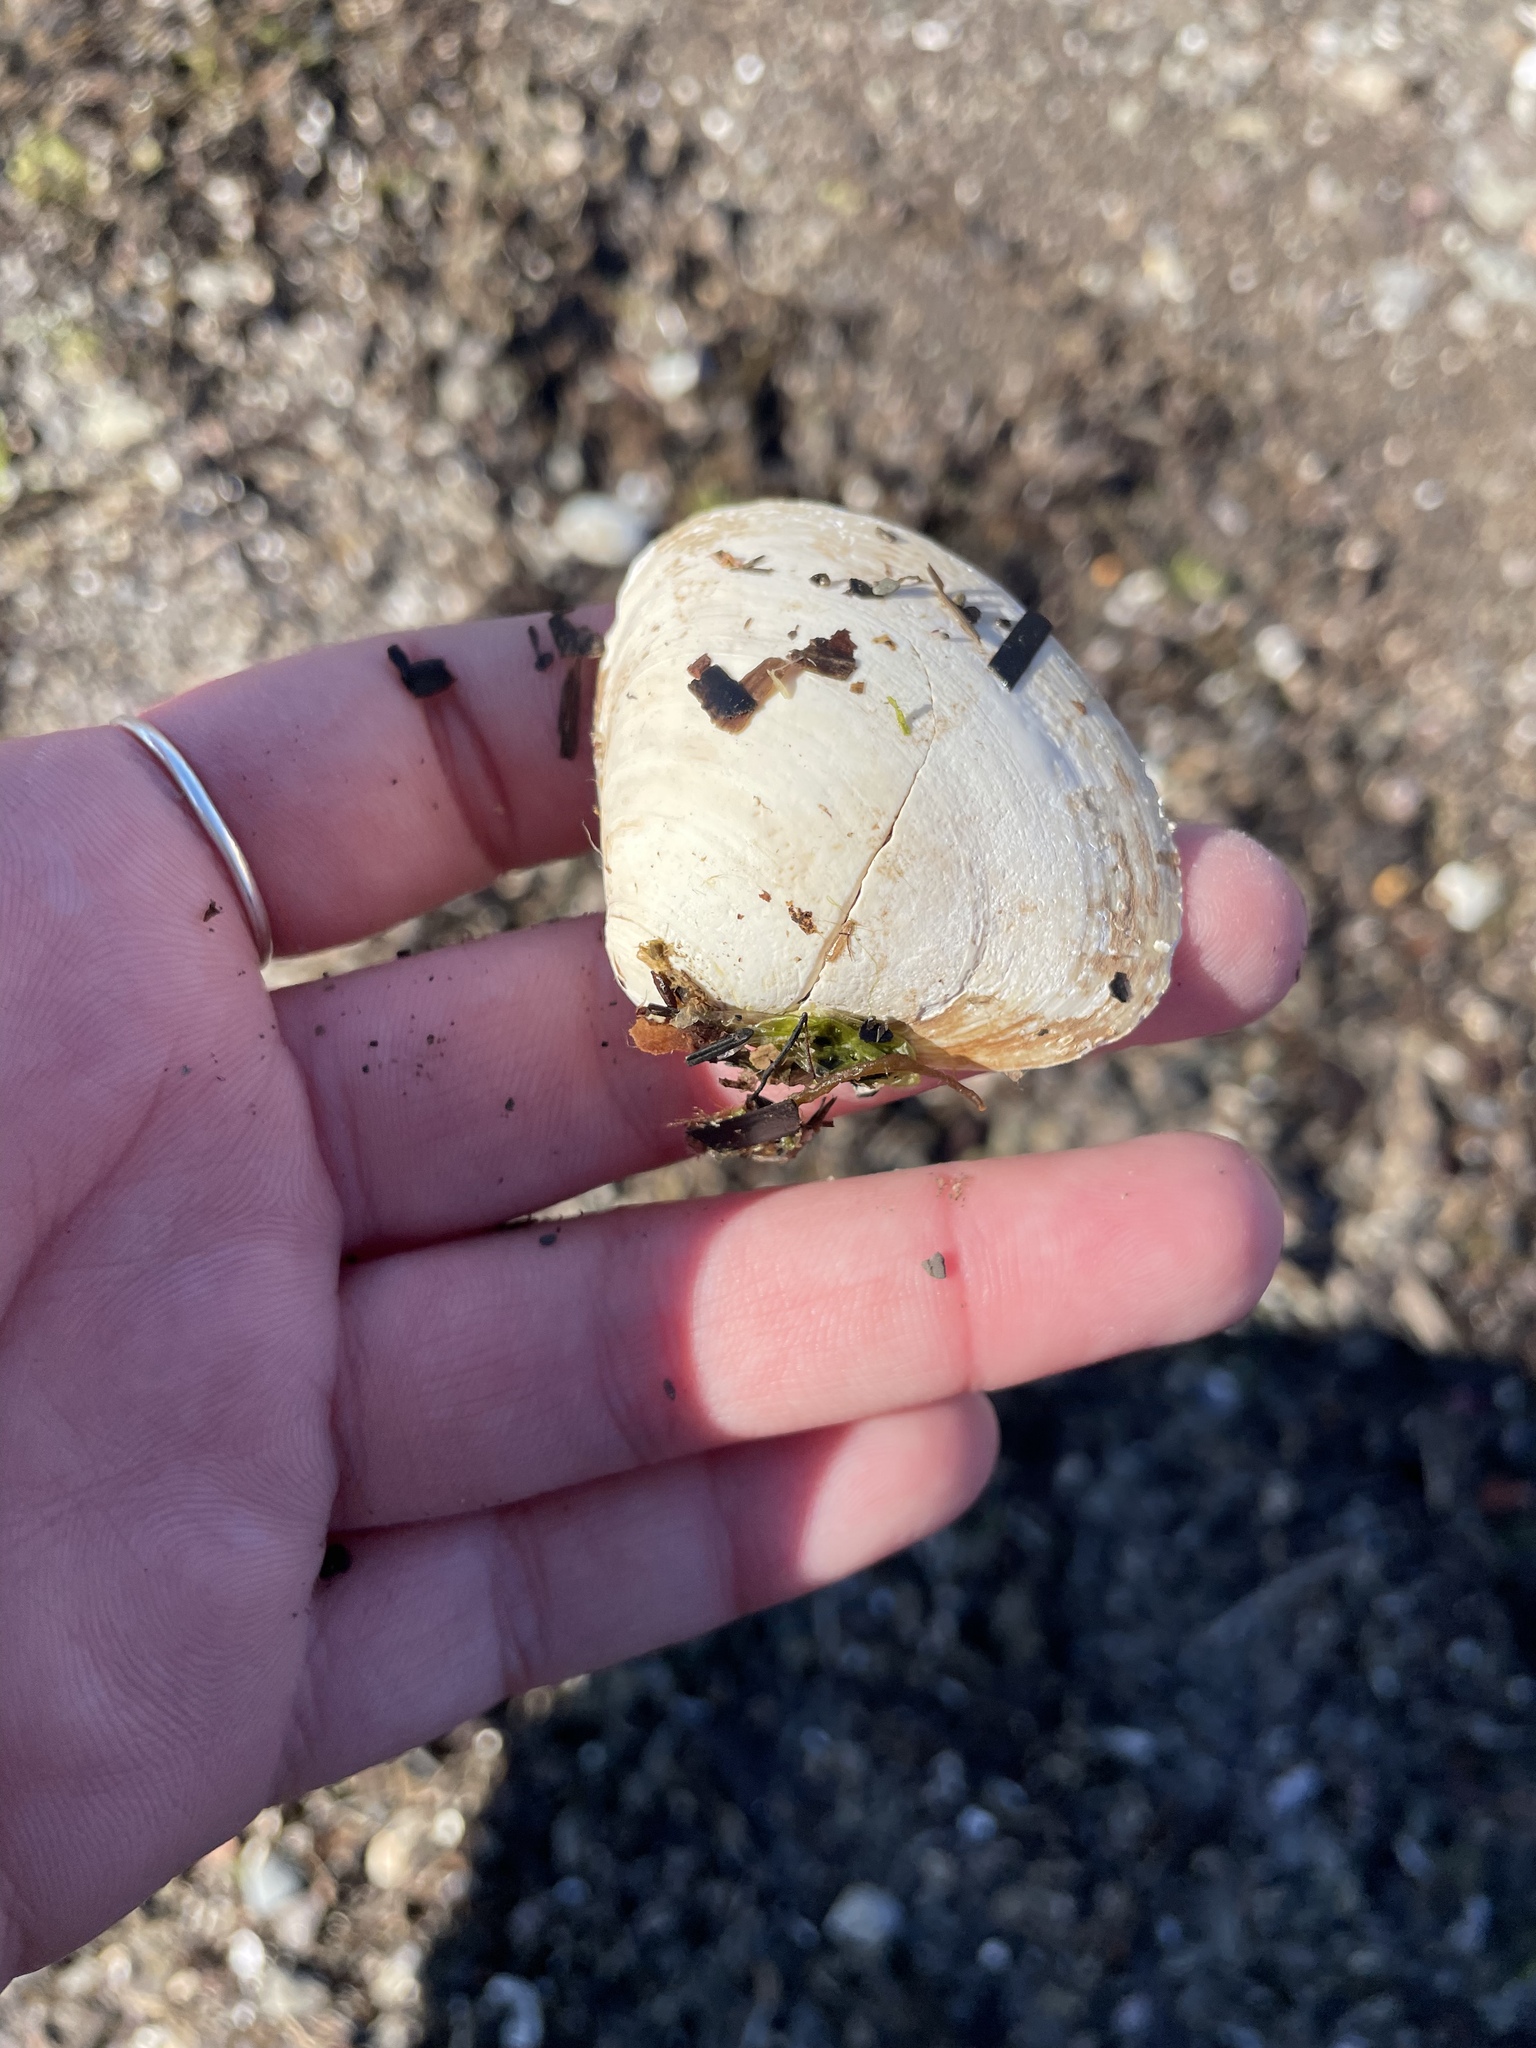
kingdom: Animalia
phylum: Mollusca
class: Bivalvia
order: Venerida
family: Mactridae
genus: Spisula
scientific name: Spisula solidissima
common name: Atlantic surf clam
